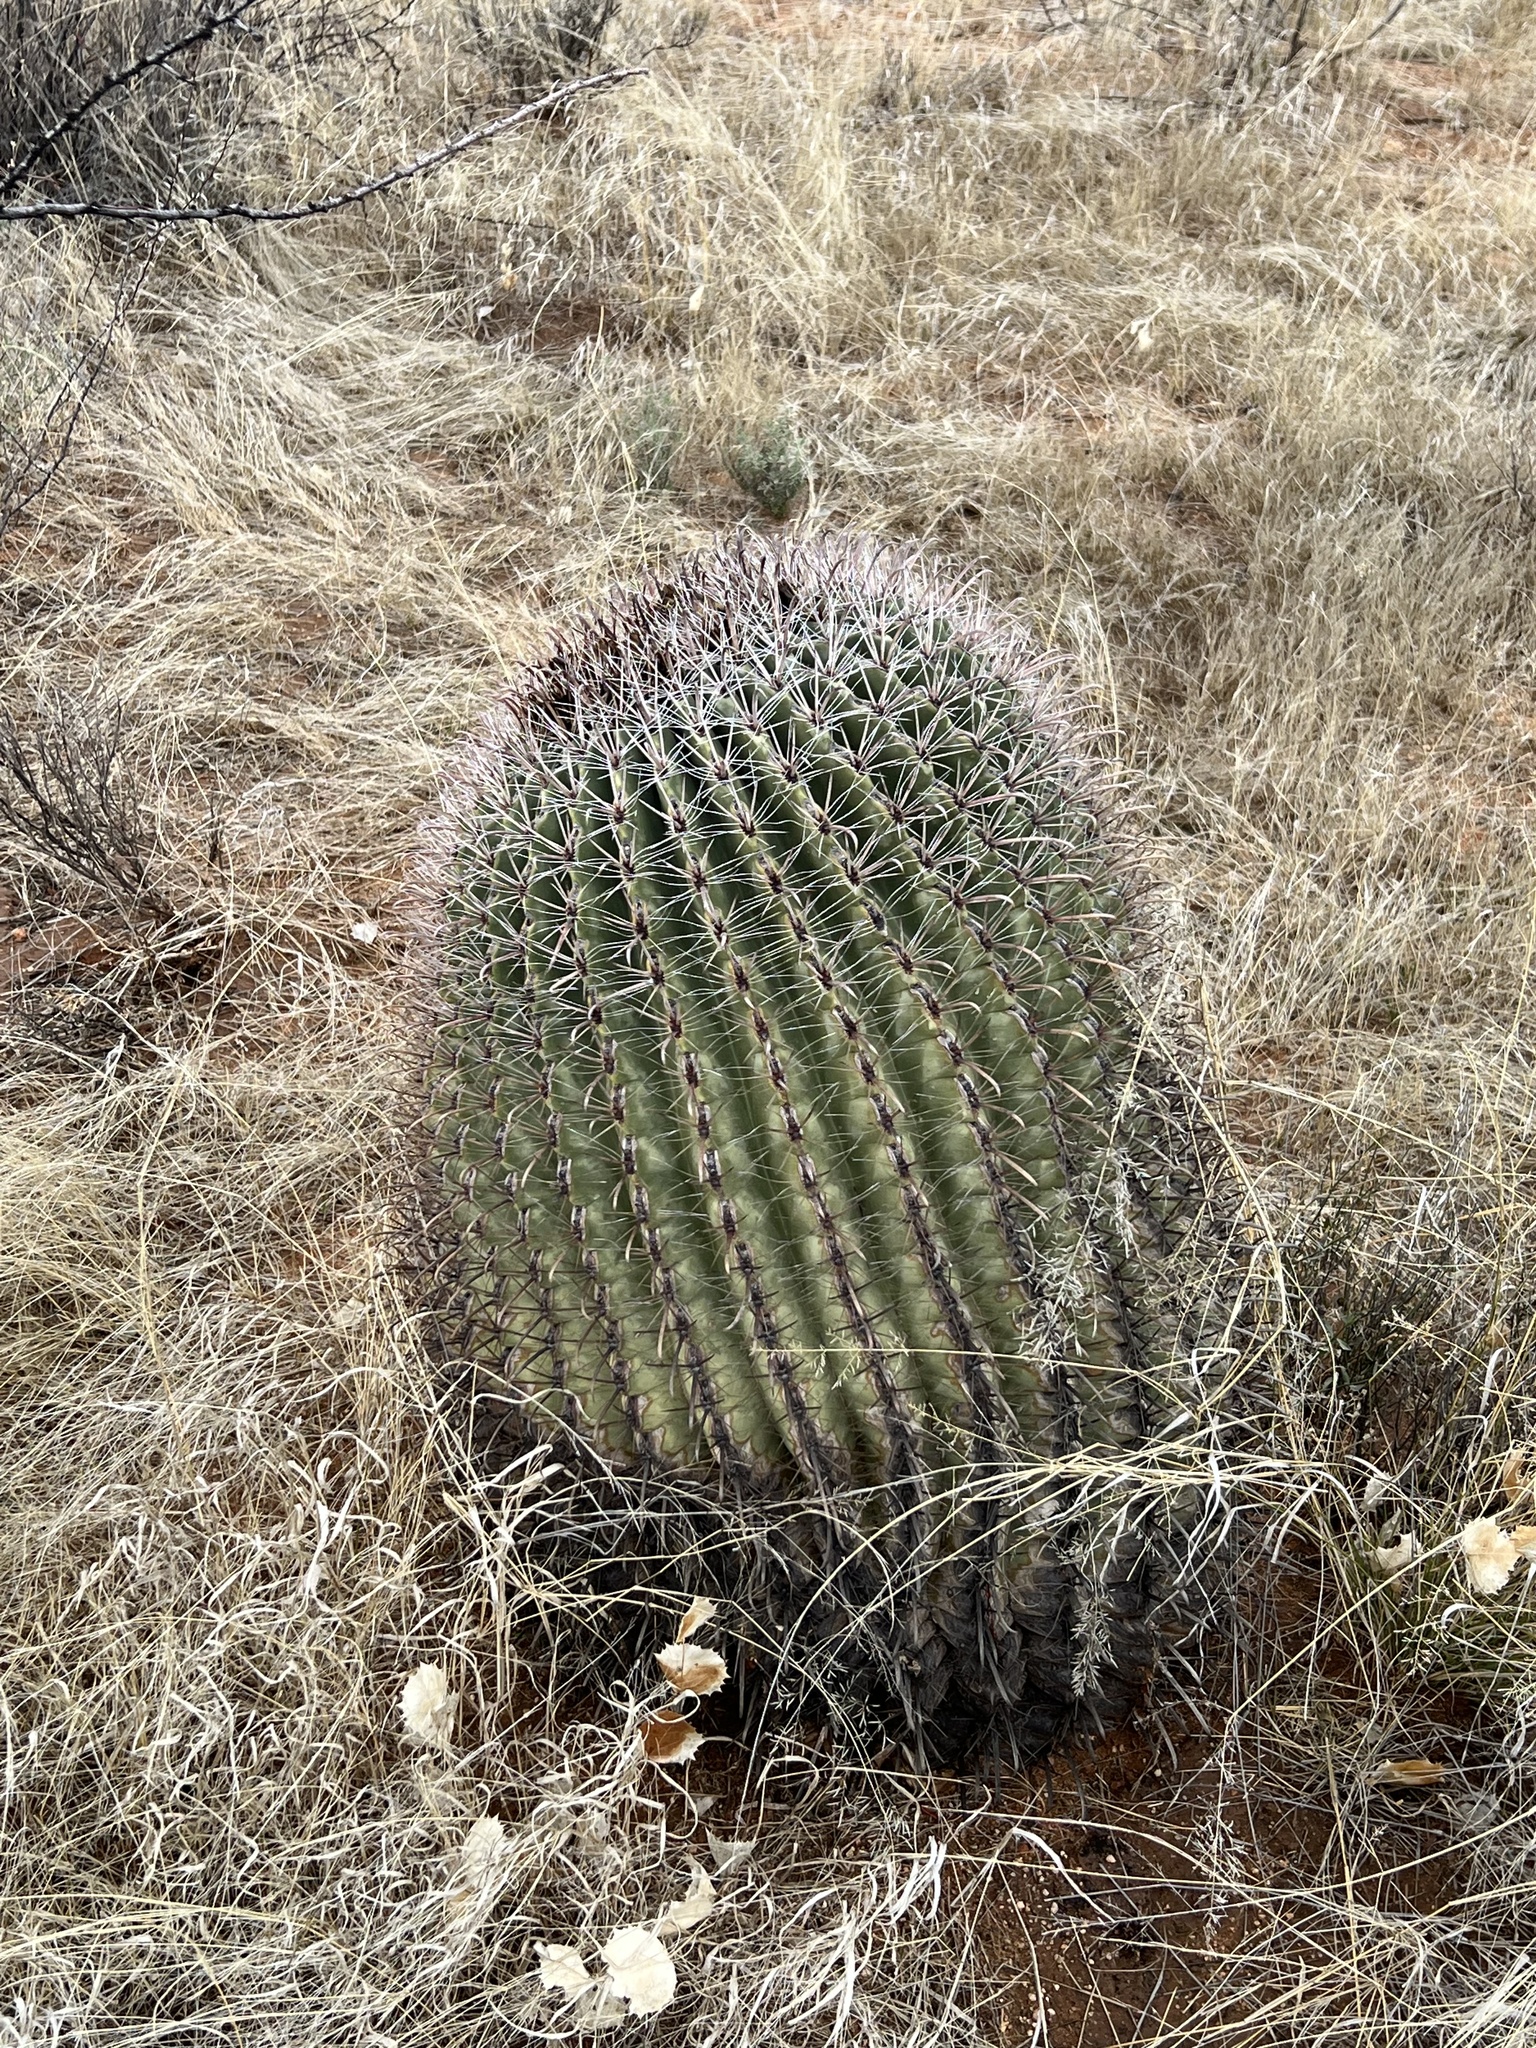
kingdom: Plantae
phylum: Tracheophyta
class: Magnoliopsida
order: Caryophyllales
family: Cactaceae
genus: Ferocactus
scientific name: Ferocactus wislizeni
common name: Candy barrel cactus
